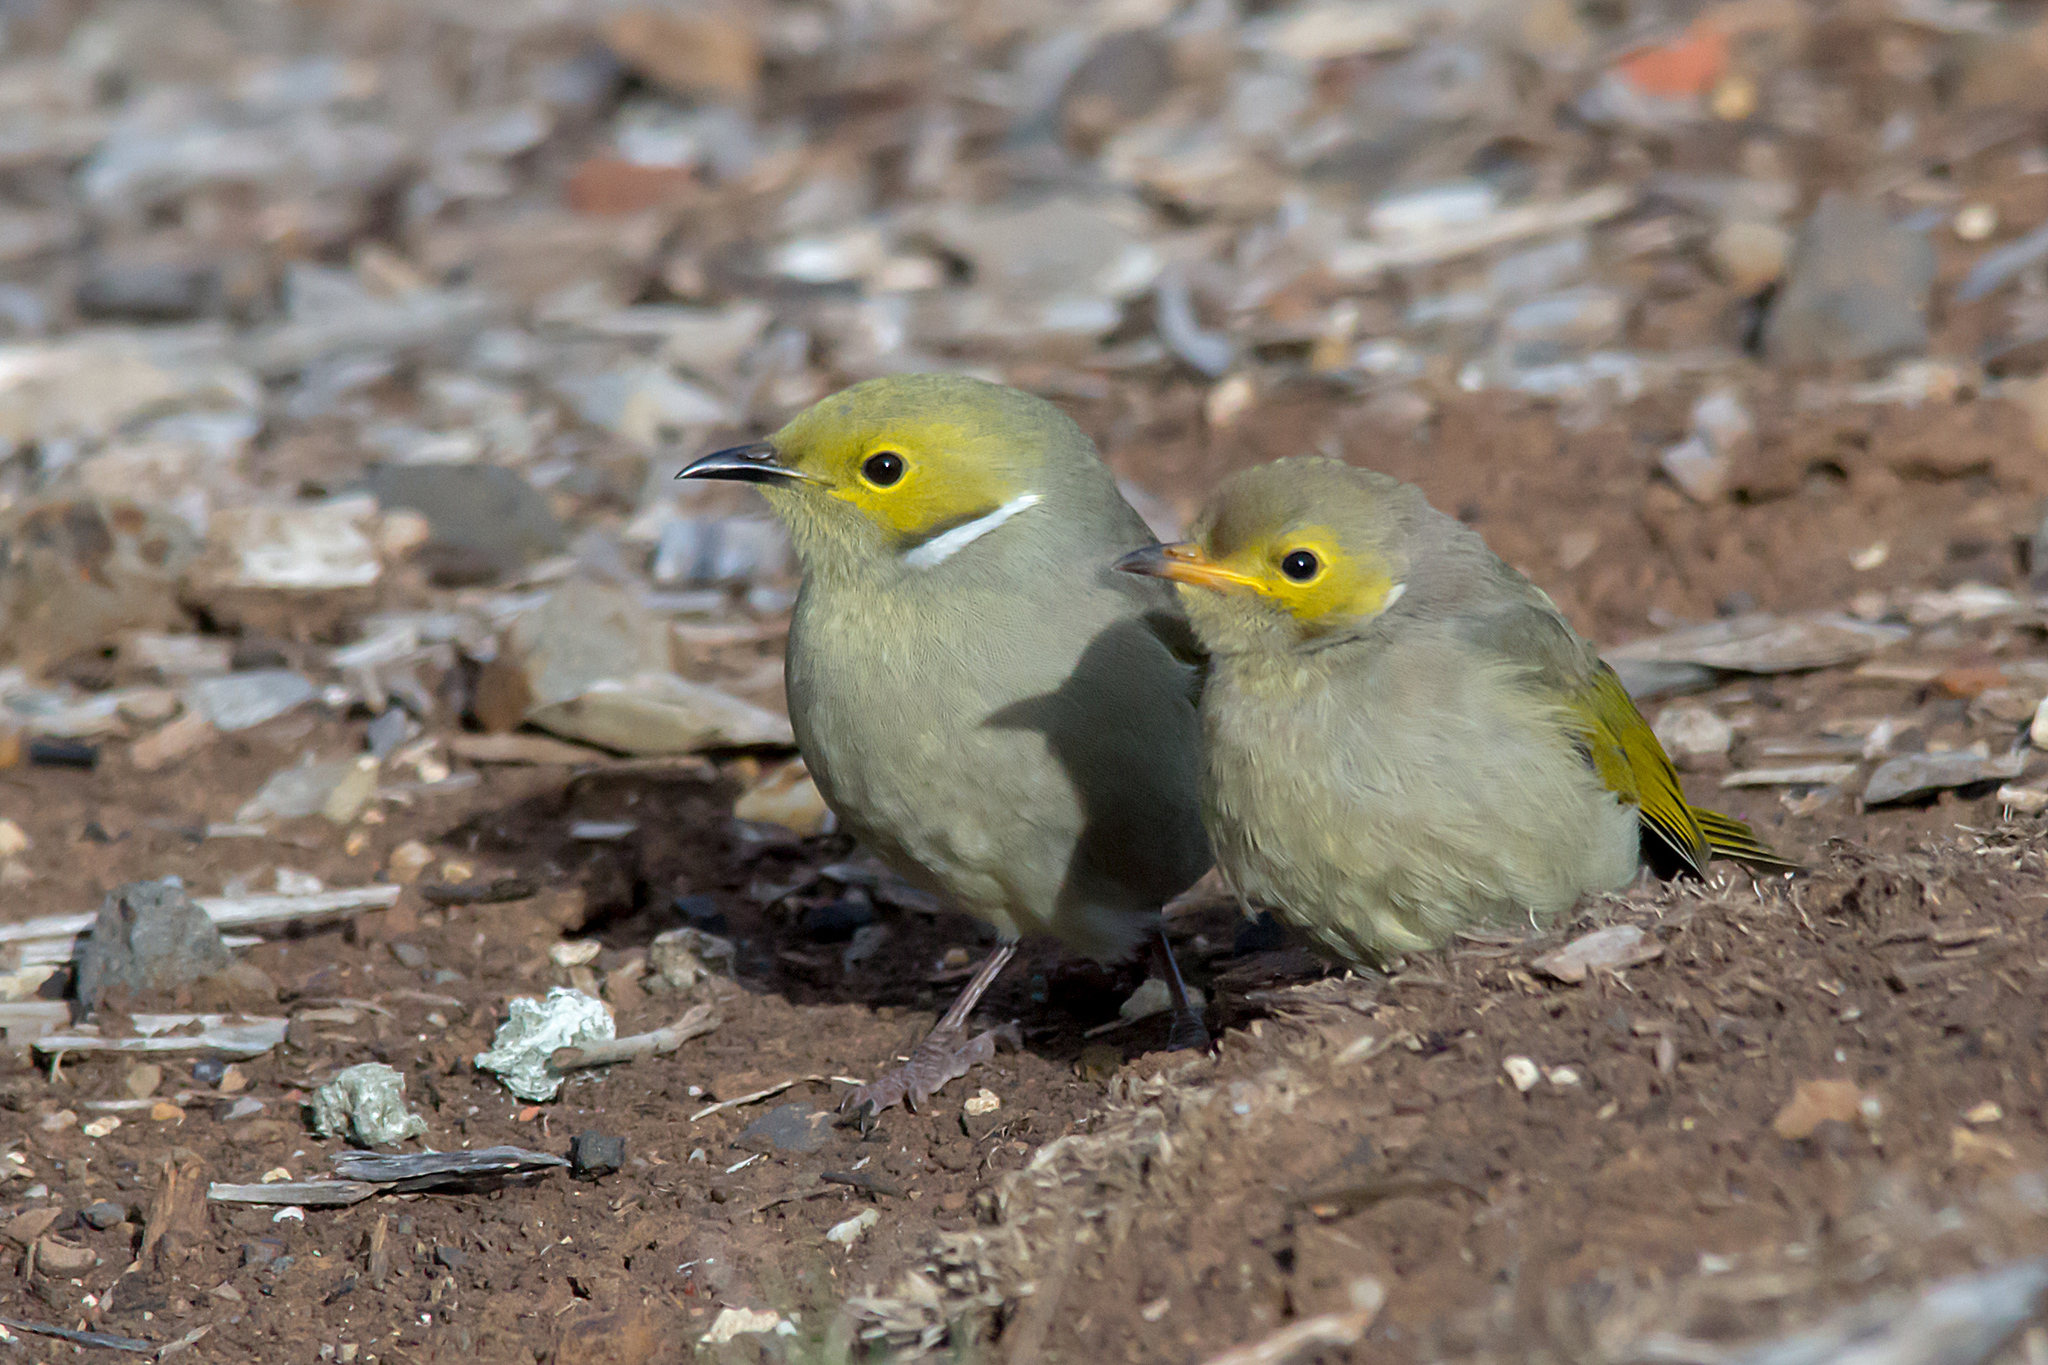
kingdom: Animalia
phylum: Chordata
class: Aves
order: Passeriformes
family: Meliphagidae
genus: Ptilotula
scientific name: Ptilotula penicillata
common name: White-plumed honeyeater
